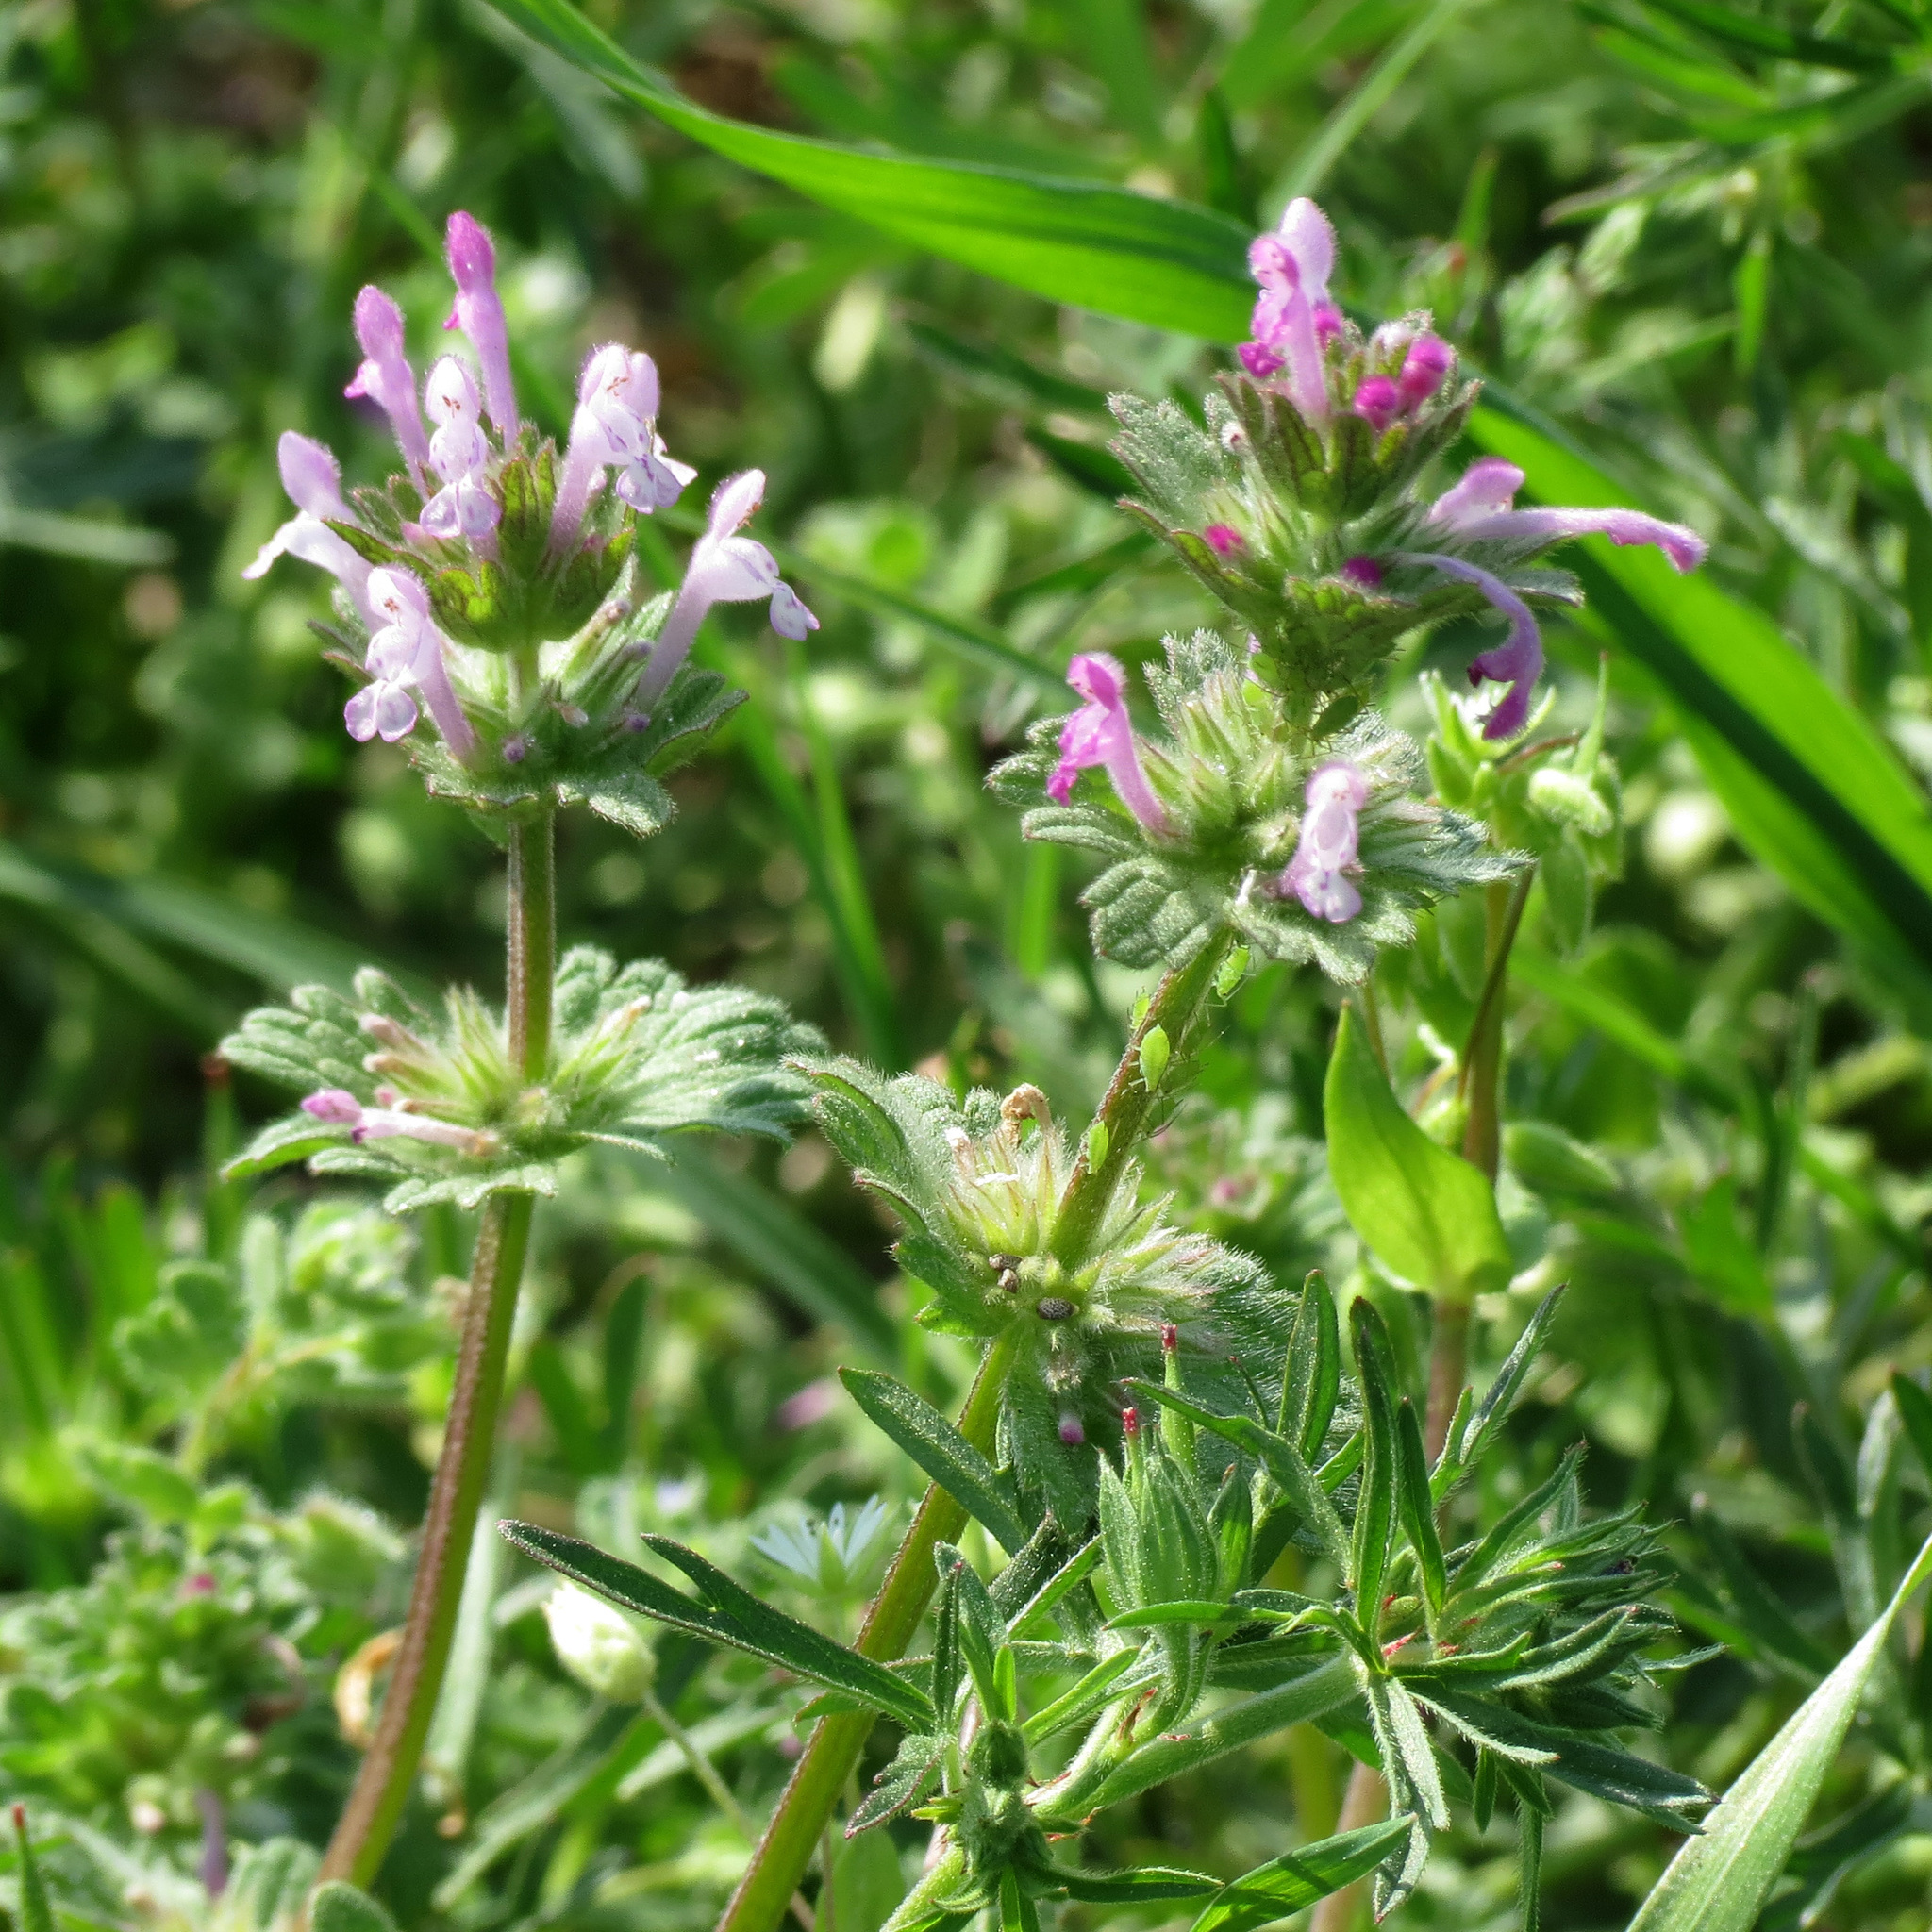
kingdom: Plantae
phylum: Tracheophyta
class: Magnoliopsida
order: Lamiales
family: Lamiaceae
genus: Lamium
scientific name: Lamium amplexicaule
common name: Henbit dead-nettle
